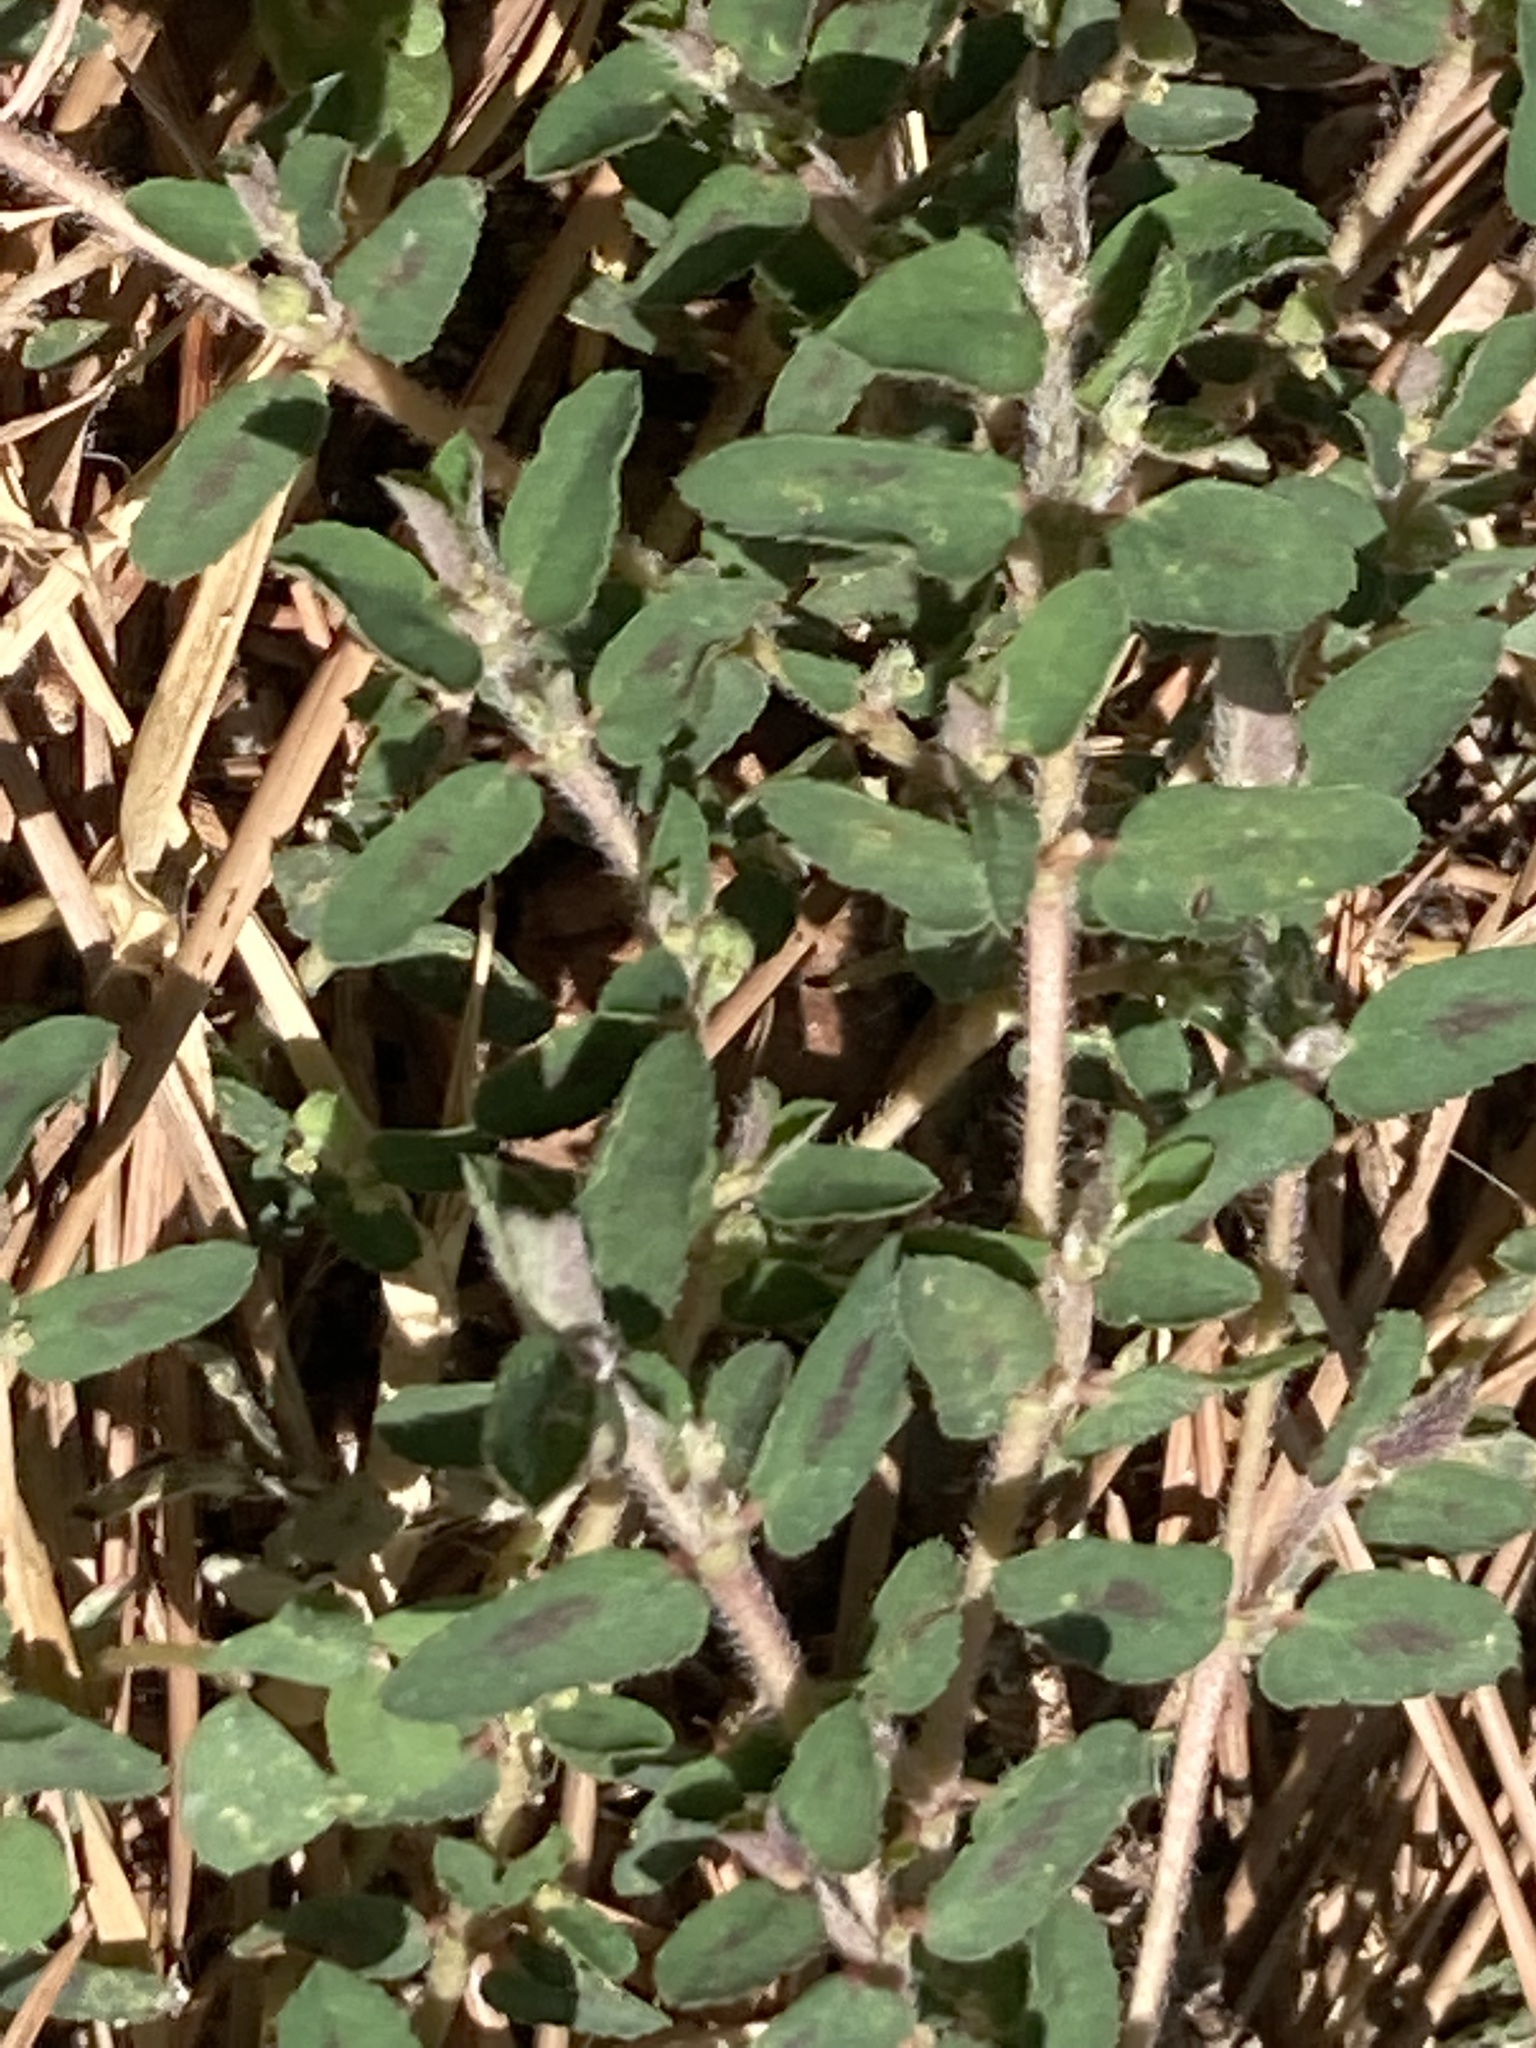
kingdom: Plantae
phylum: Tracheophyta
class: Magnoliopsida
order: Malpighiales
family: Euphorbiaceae
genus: Euphorbia
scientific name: Euphorbia maculata
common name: Spotted spurge
